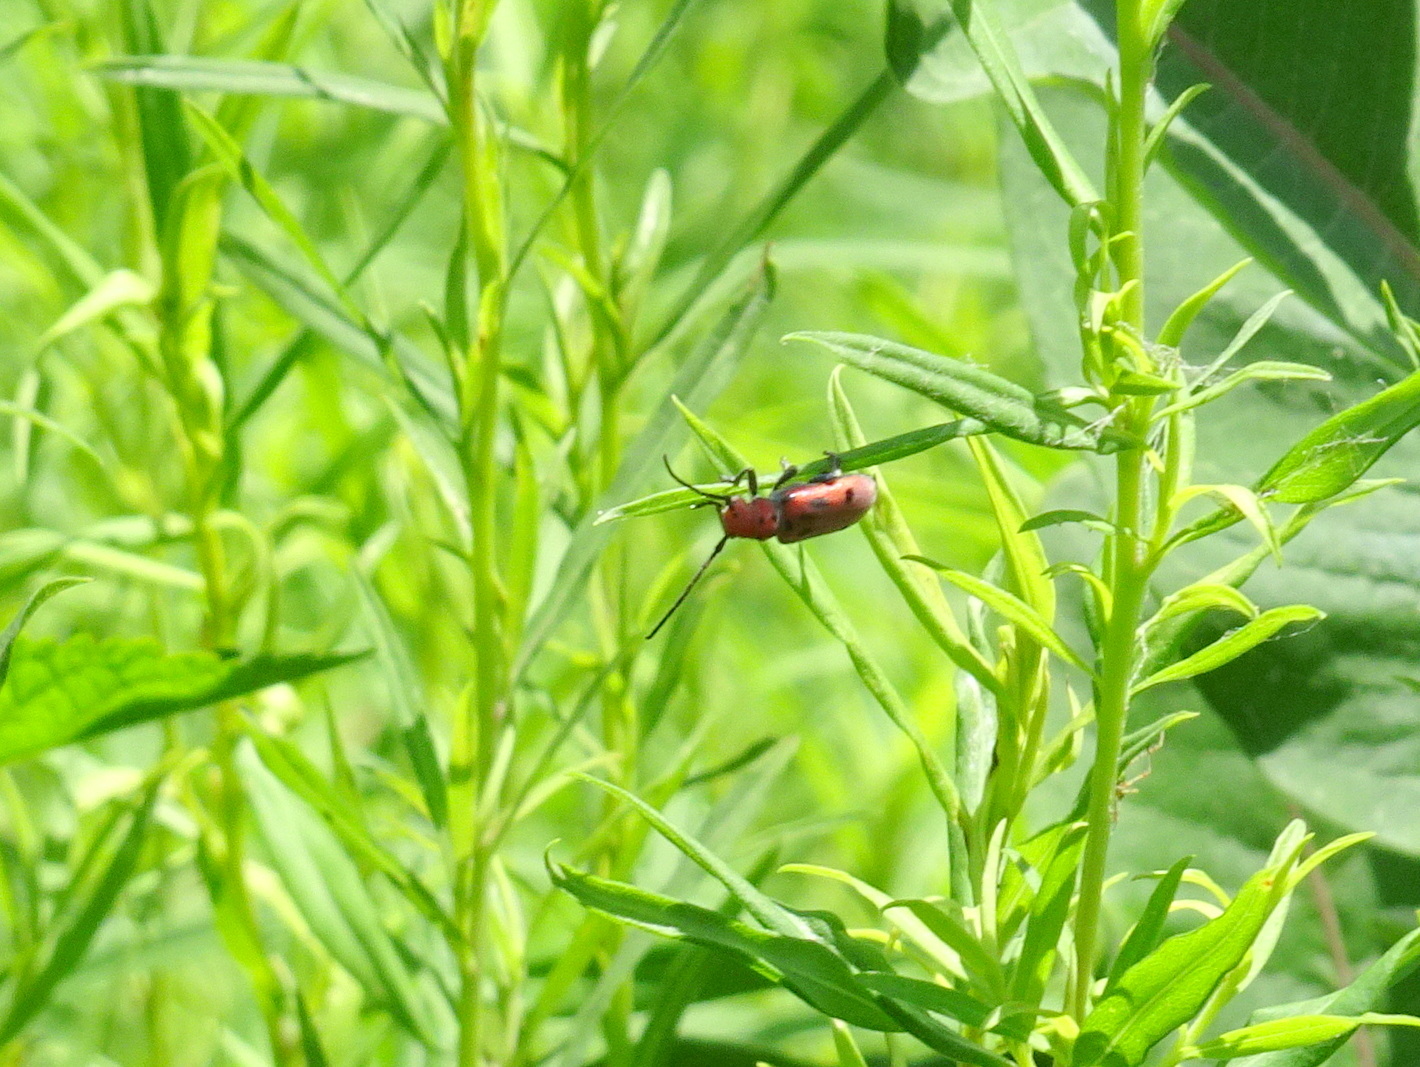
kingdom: Animalia
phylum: Arthropoda
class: Insecta
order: Coleoptera
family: Cerambycidae
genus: Tetraopes
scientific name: Tetraopes tetrophthalmus
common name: Red milkweed beetle
